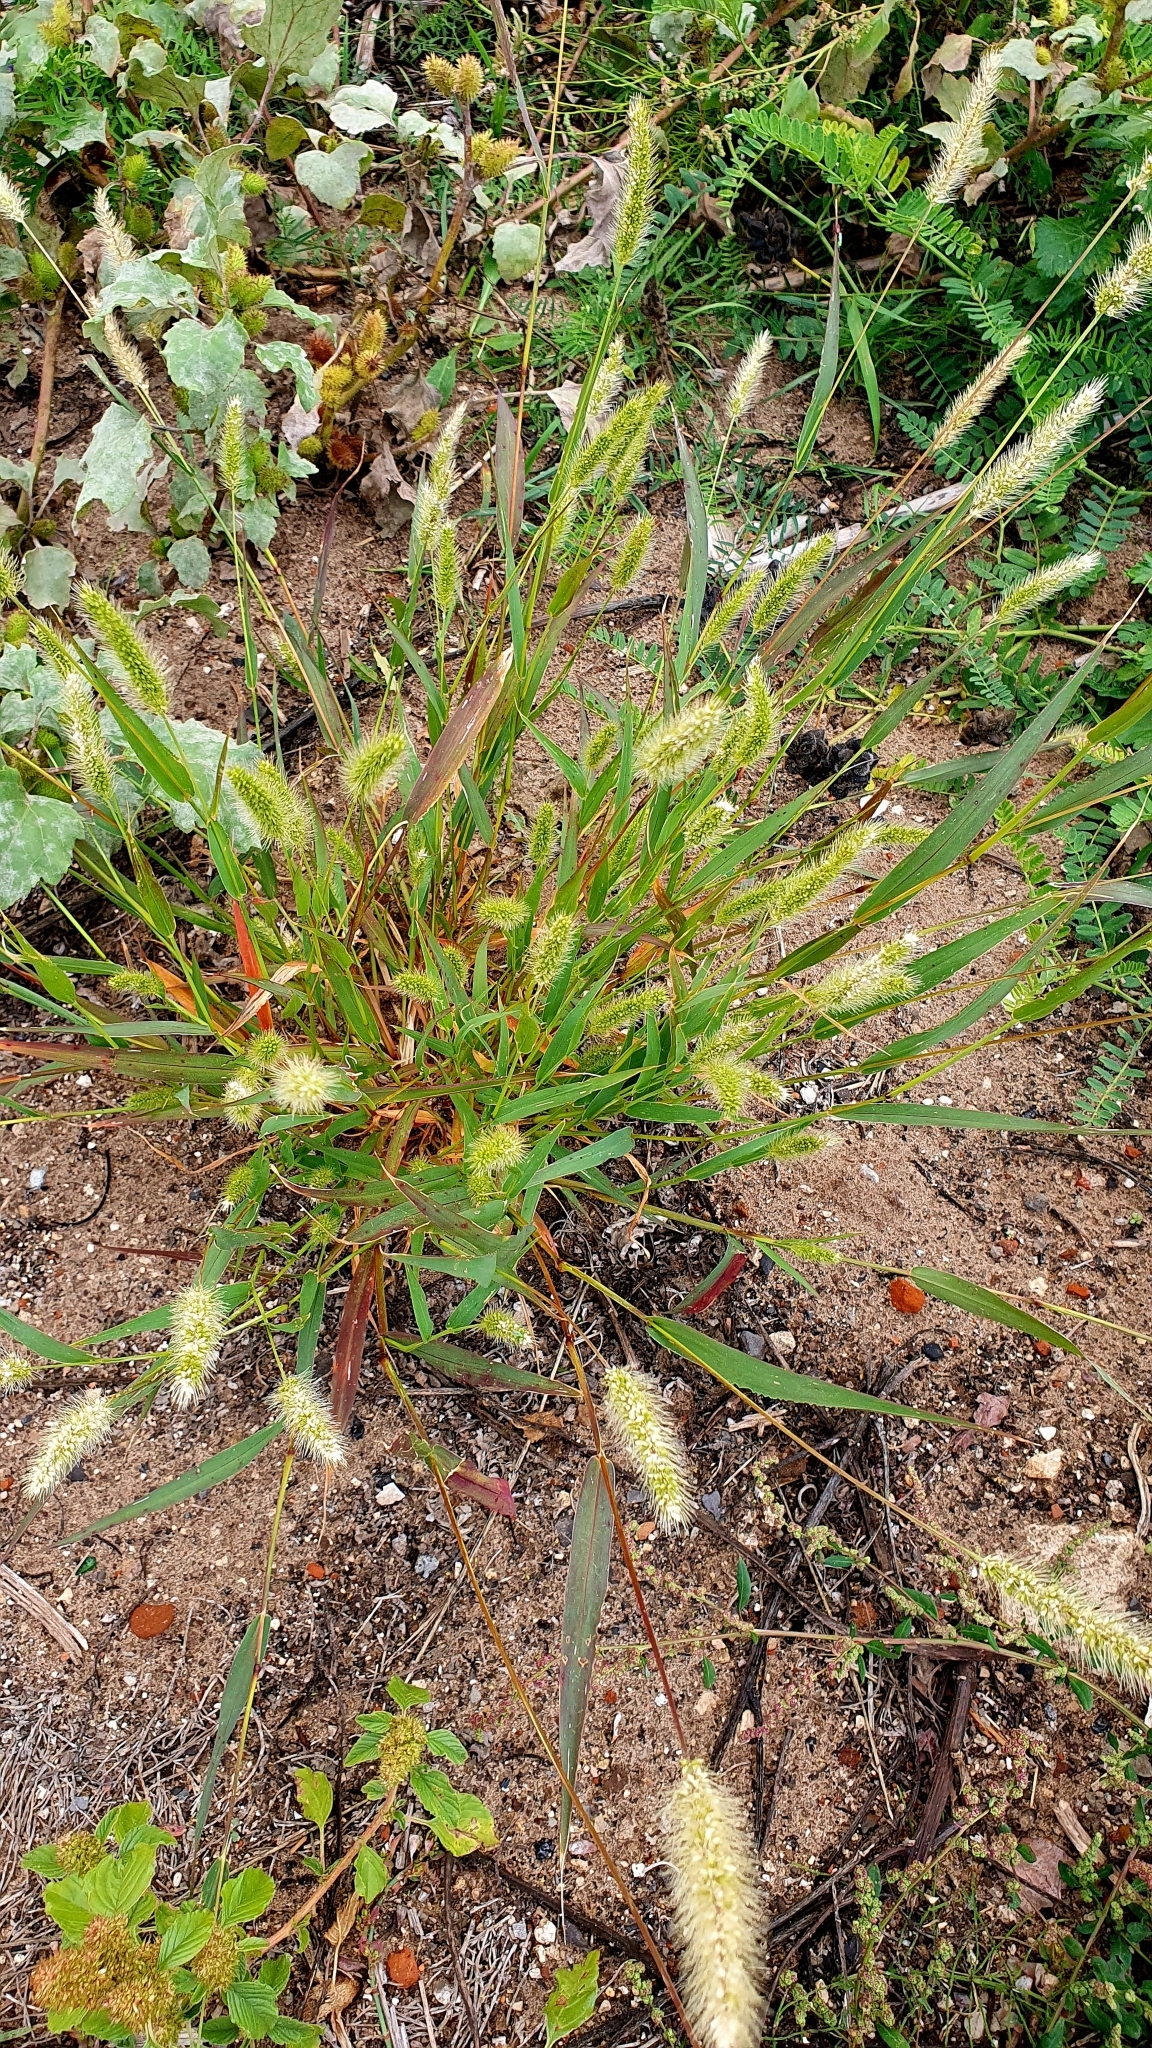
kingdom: Plantae
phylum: Tracheophyta
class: Liliopsida
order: Poales
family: Poaceae
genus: Setaria
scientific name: Setaria viridis
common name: Green bristlegrass
